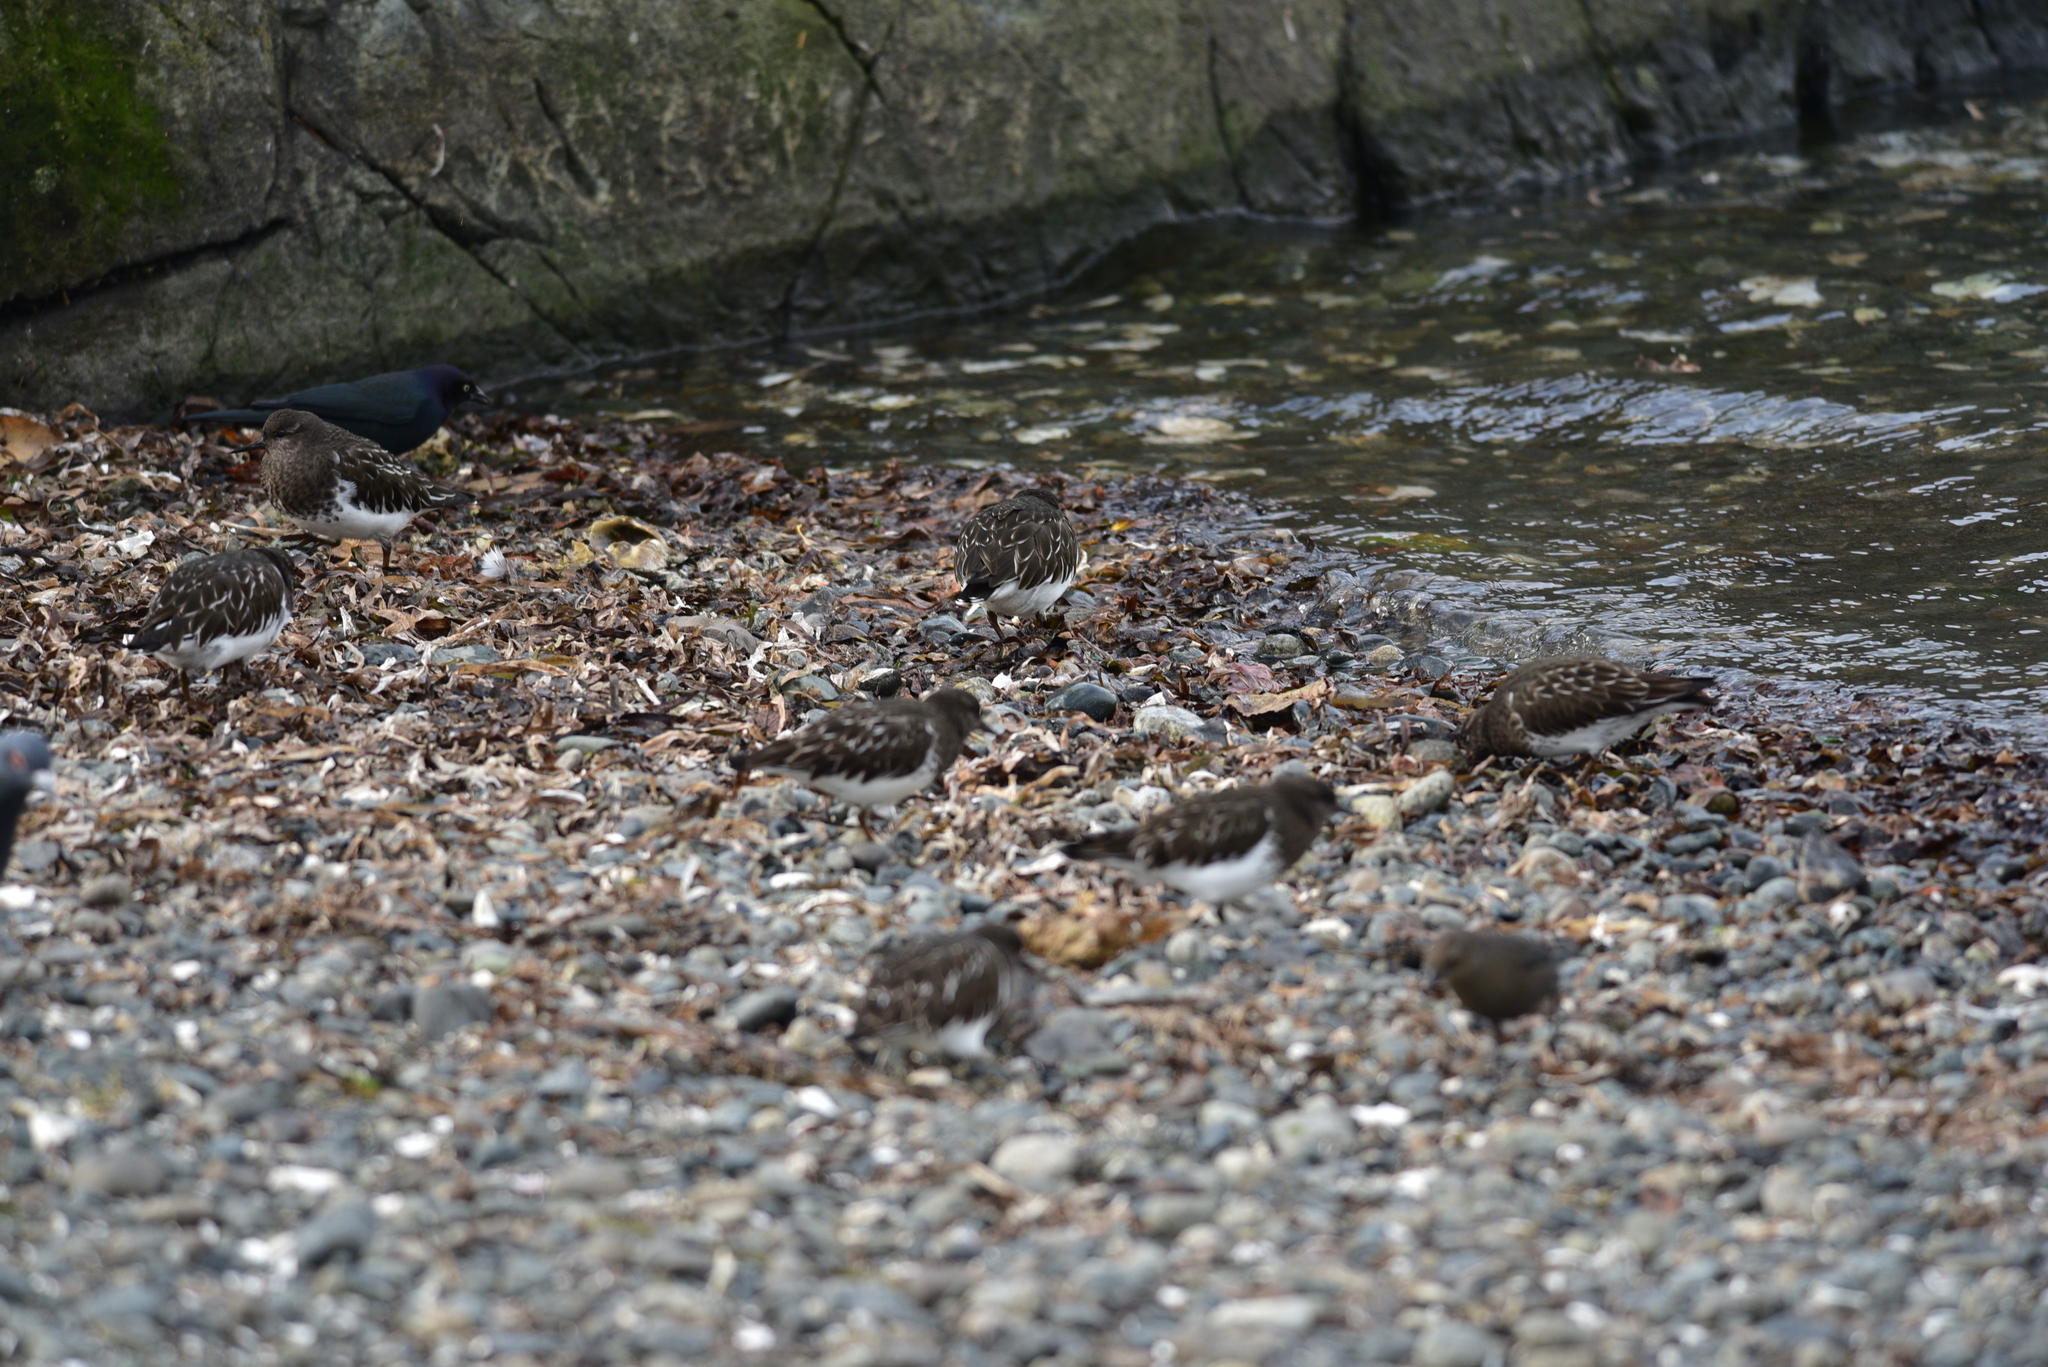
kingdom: Animalia
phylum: Chordata
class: Aves
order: Charadriiformes
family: Scolopacidae
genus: Arenaria
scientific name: Arenaria melanocephala
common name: Black turnstone
